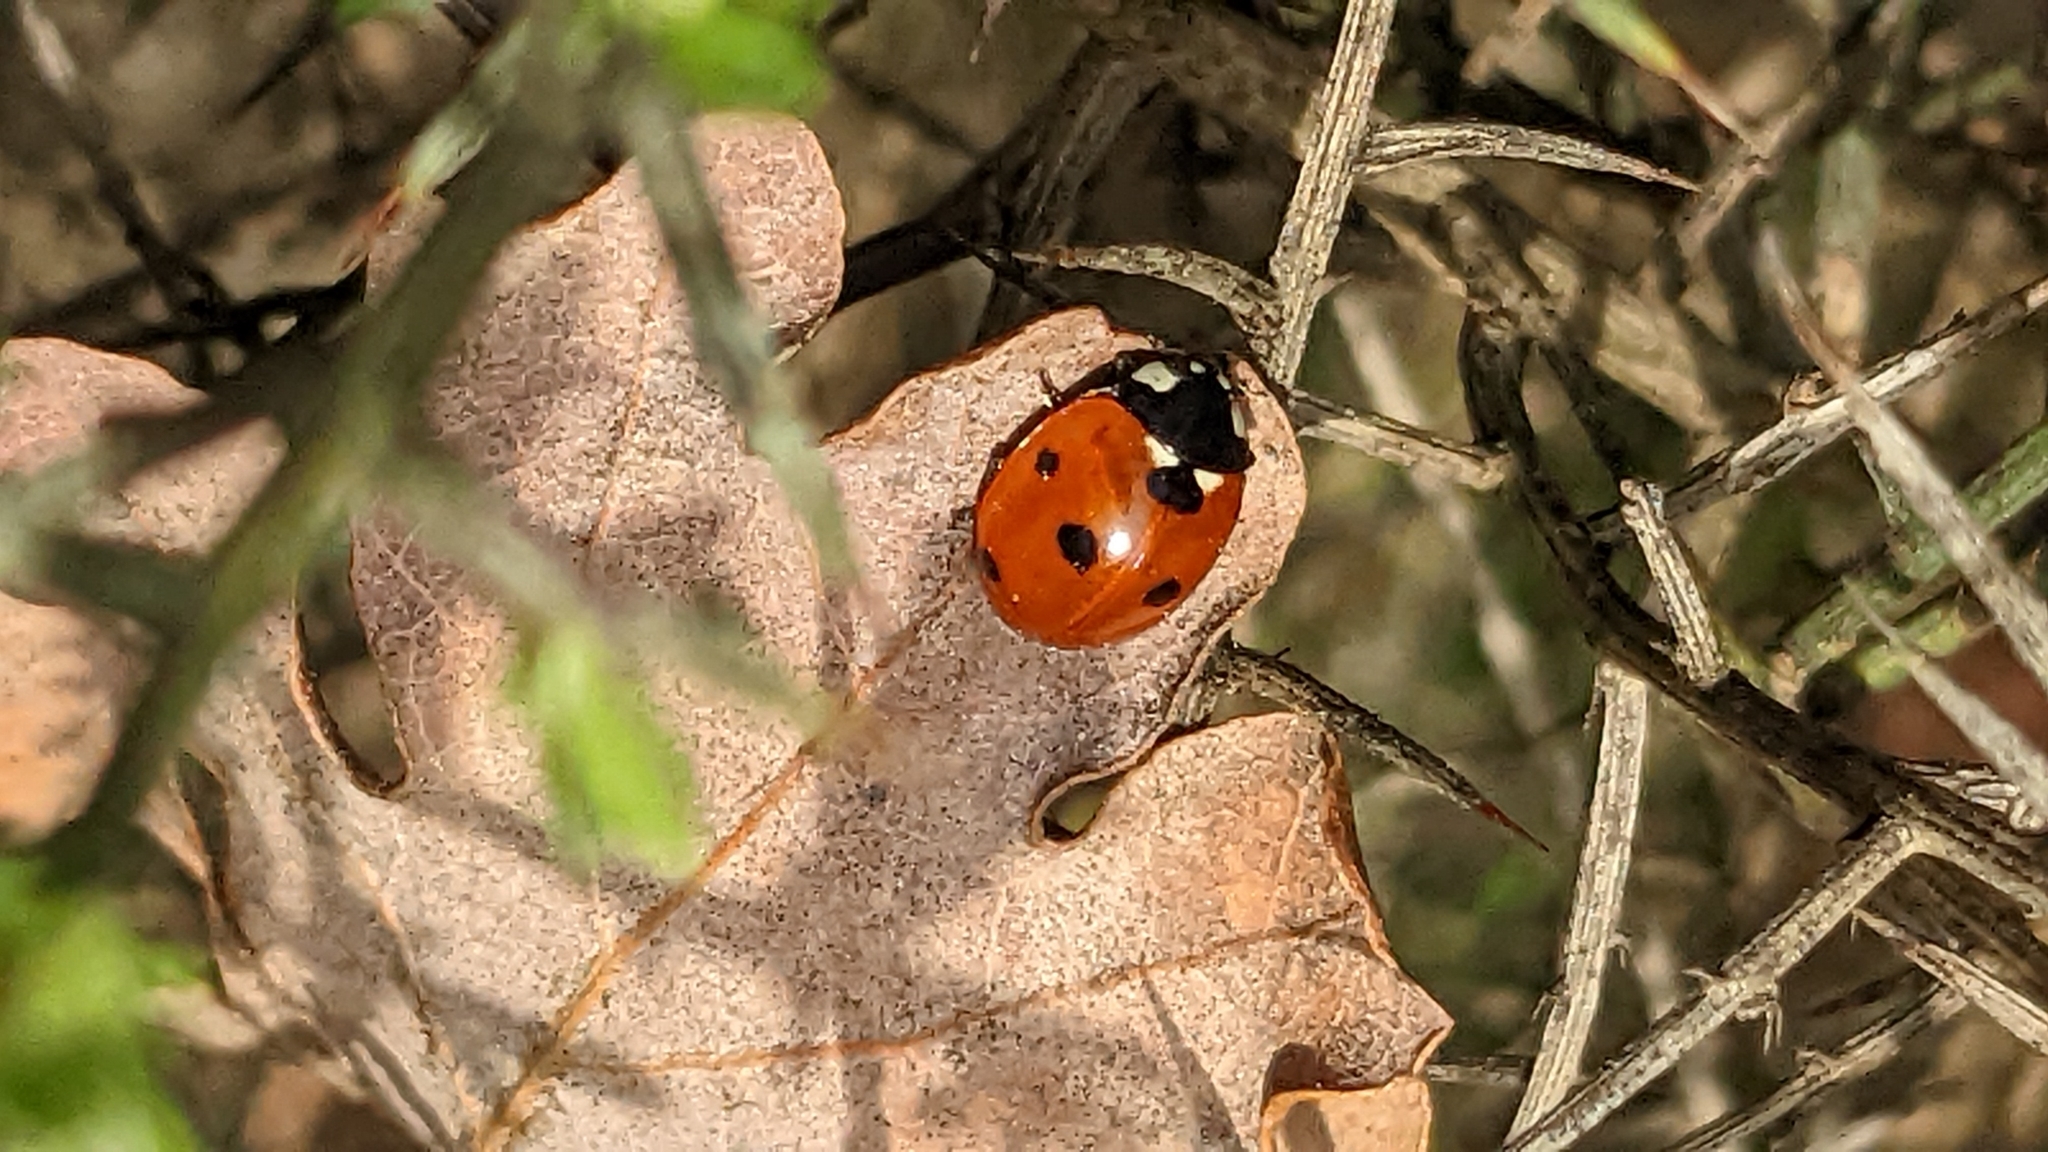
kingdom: Animalia
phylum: Arthropoda
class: Insecta
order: Coleoptera
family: Coccinellidae
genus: Coccinella
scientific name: Coccinella septempunctata
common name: Sevenspotted lady beetle
